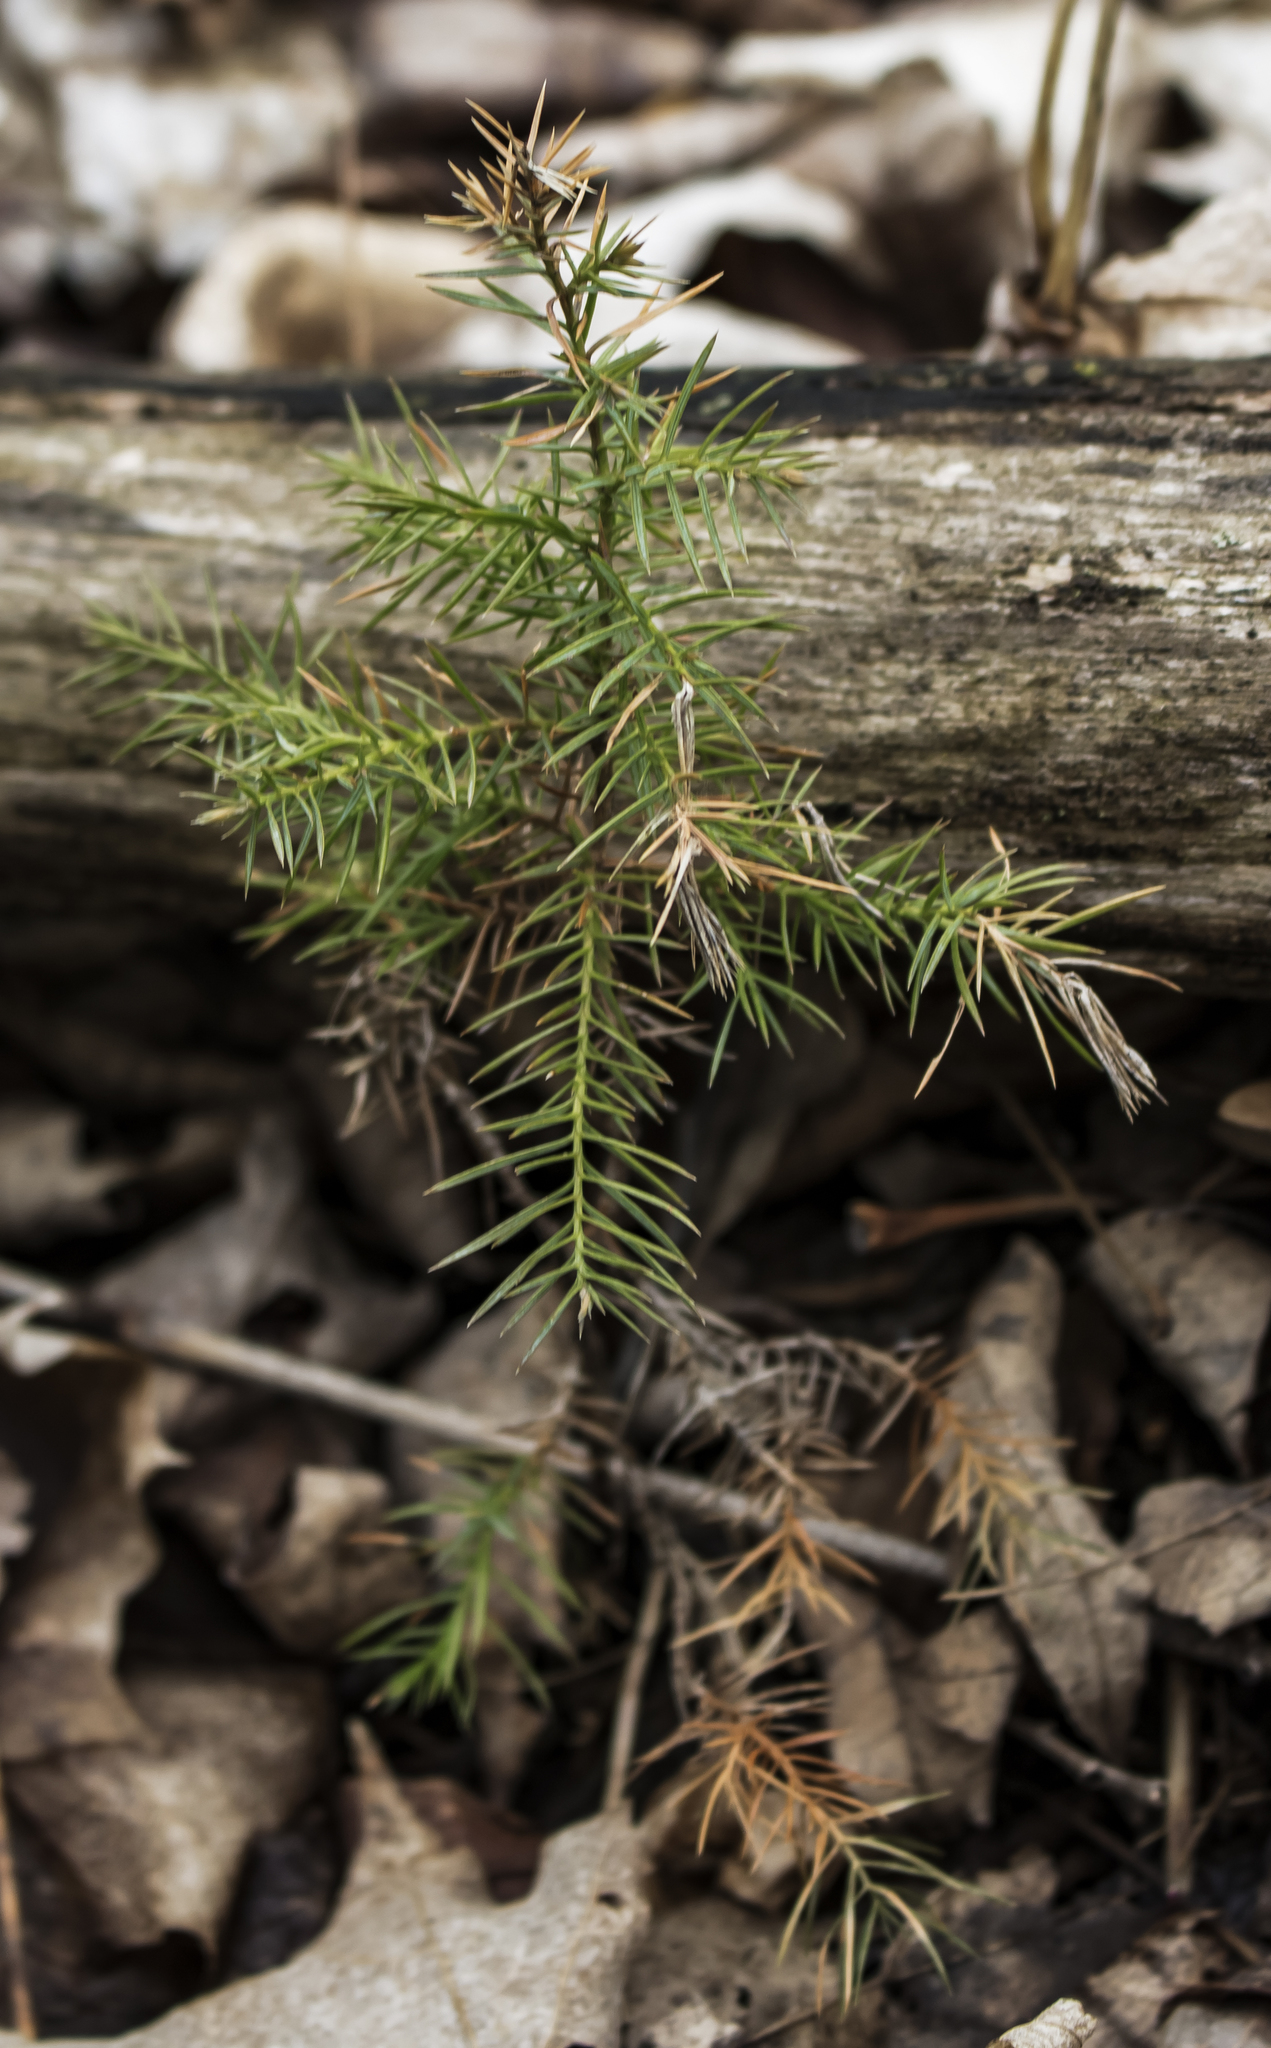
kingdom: Plantae
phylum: Tracheophyta
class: Pinopsida
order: Pinales
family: Cupressaceae
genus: Juniperus
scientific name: Juniperus virginiana
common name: Red juniper
